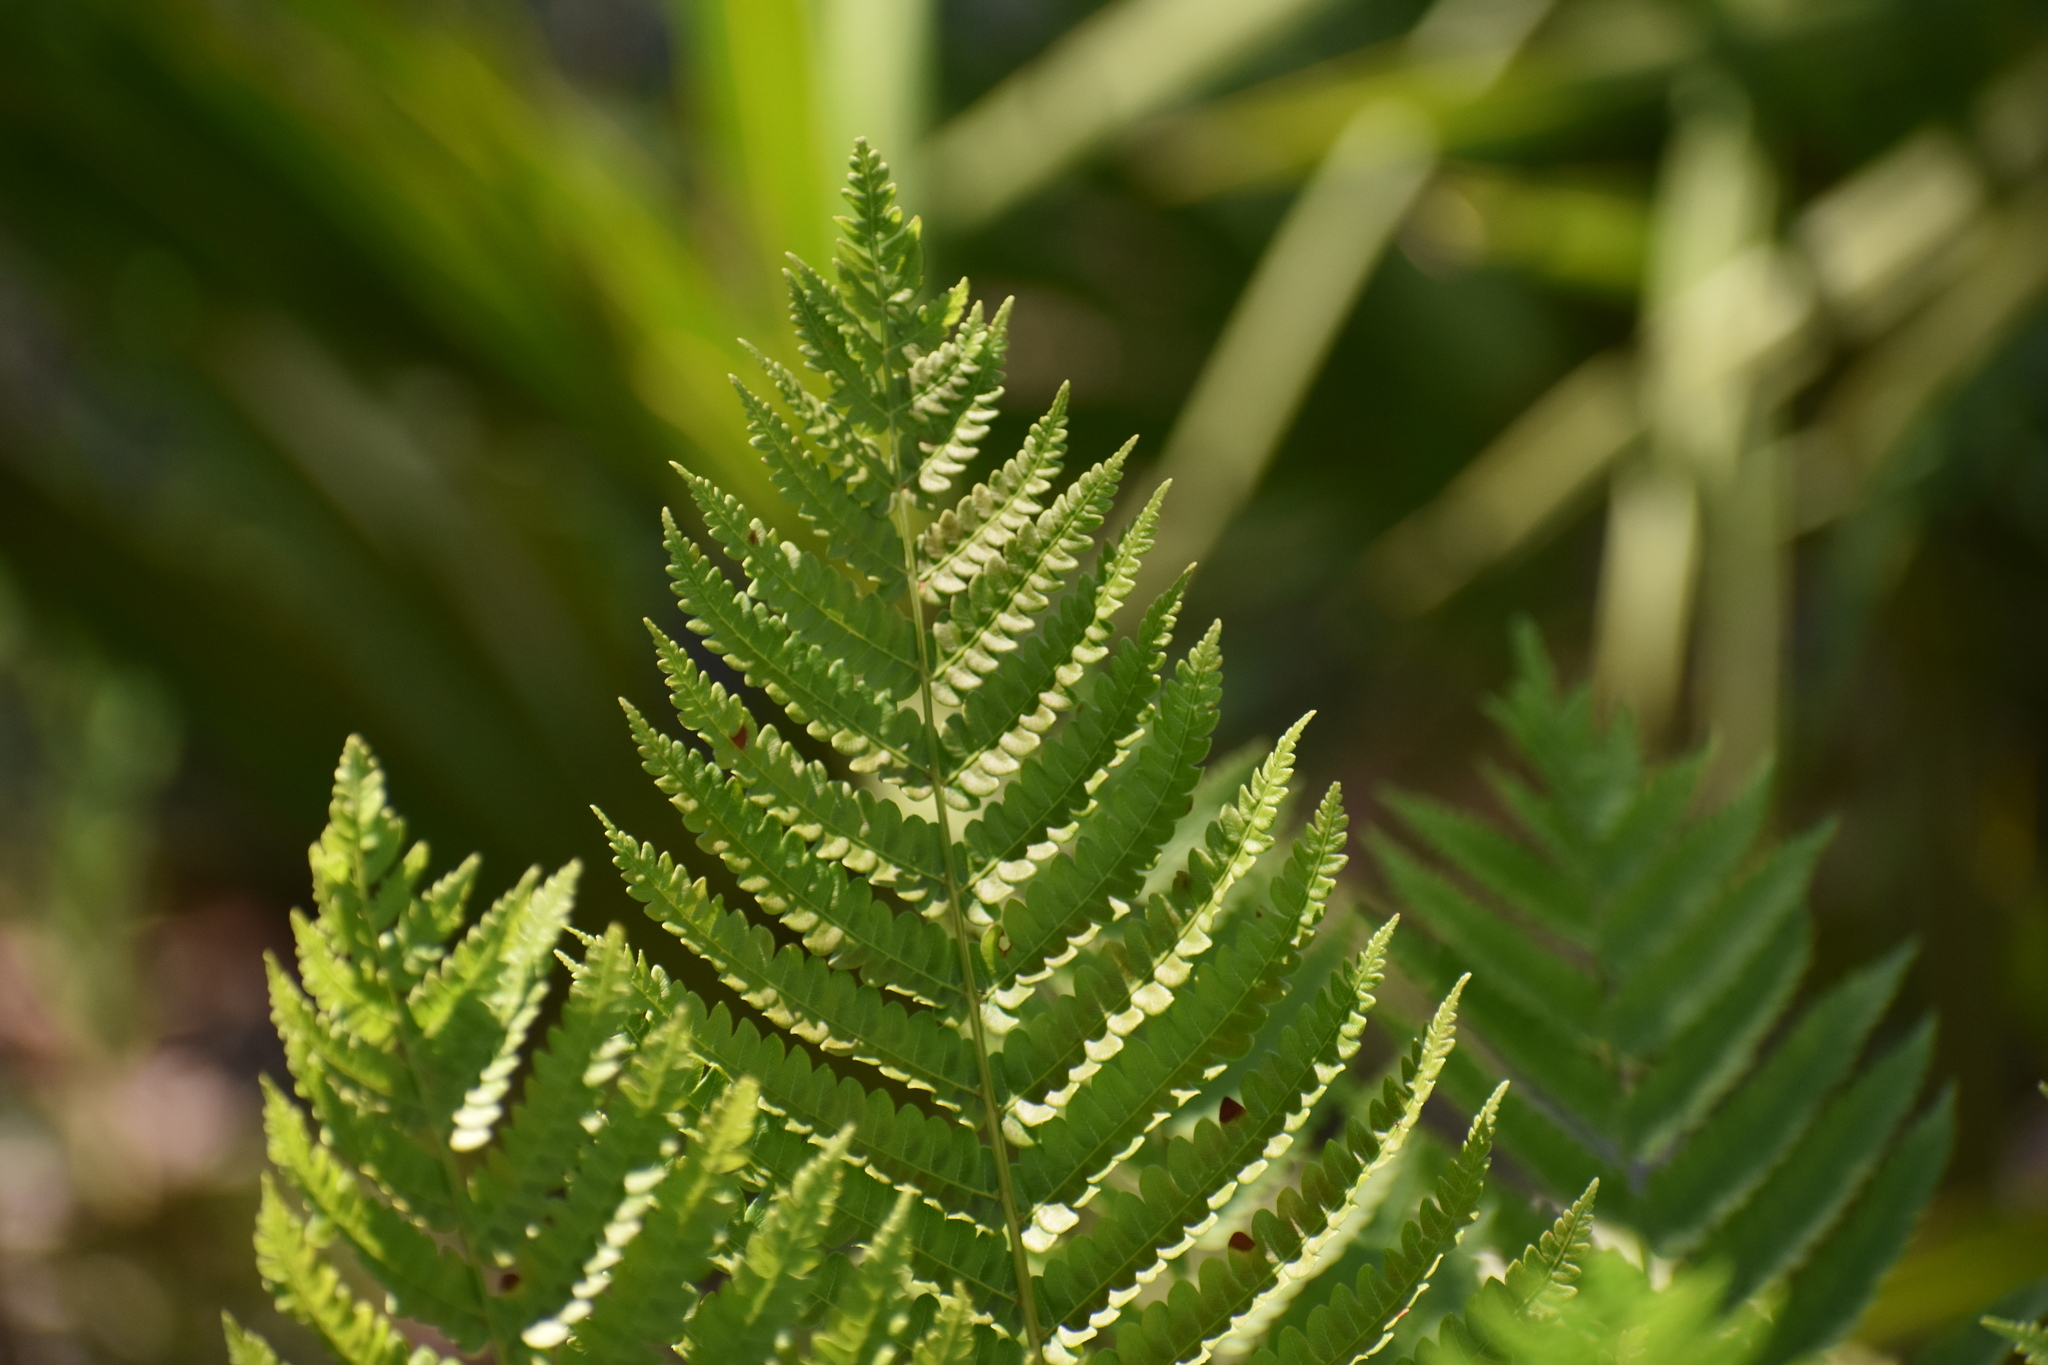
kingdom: Plantae
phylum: Tracheophyta
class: Polypodiopsida
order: Osmundales
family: Osmundaceae
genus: Osmundastrum
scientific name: Osmundastrum cinnamomeum
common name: Cinnamon fern
